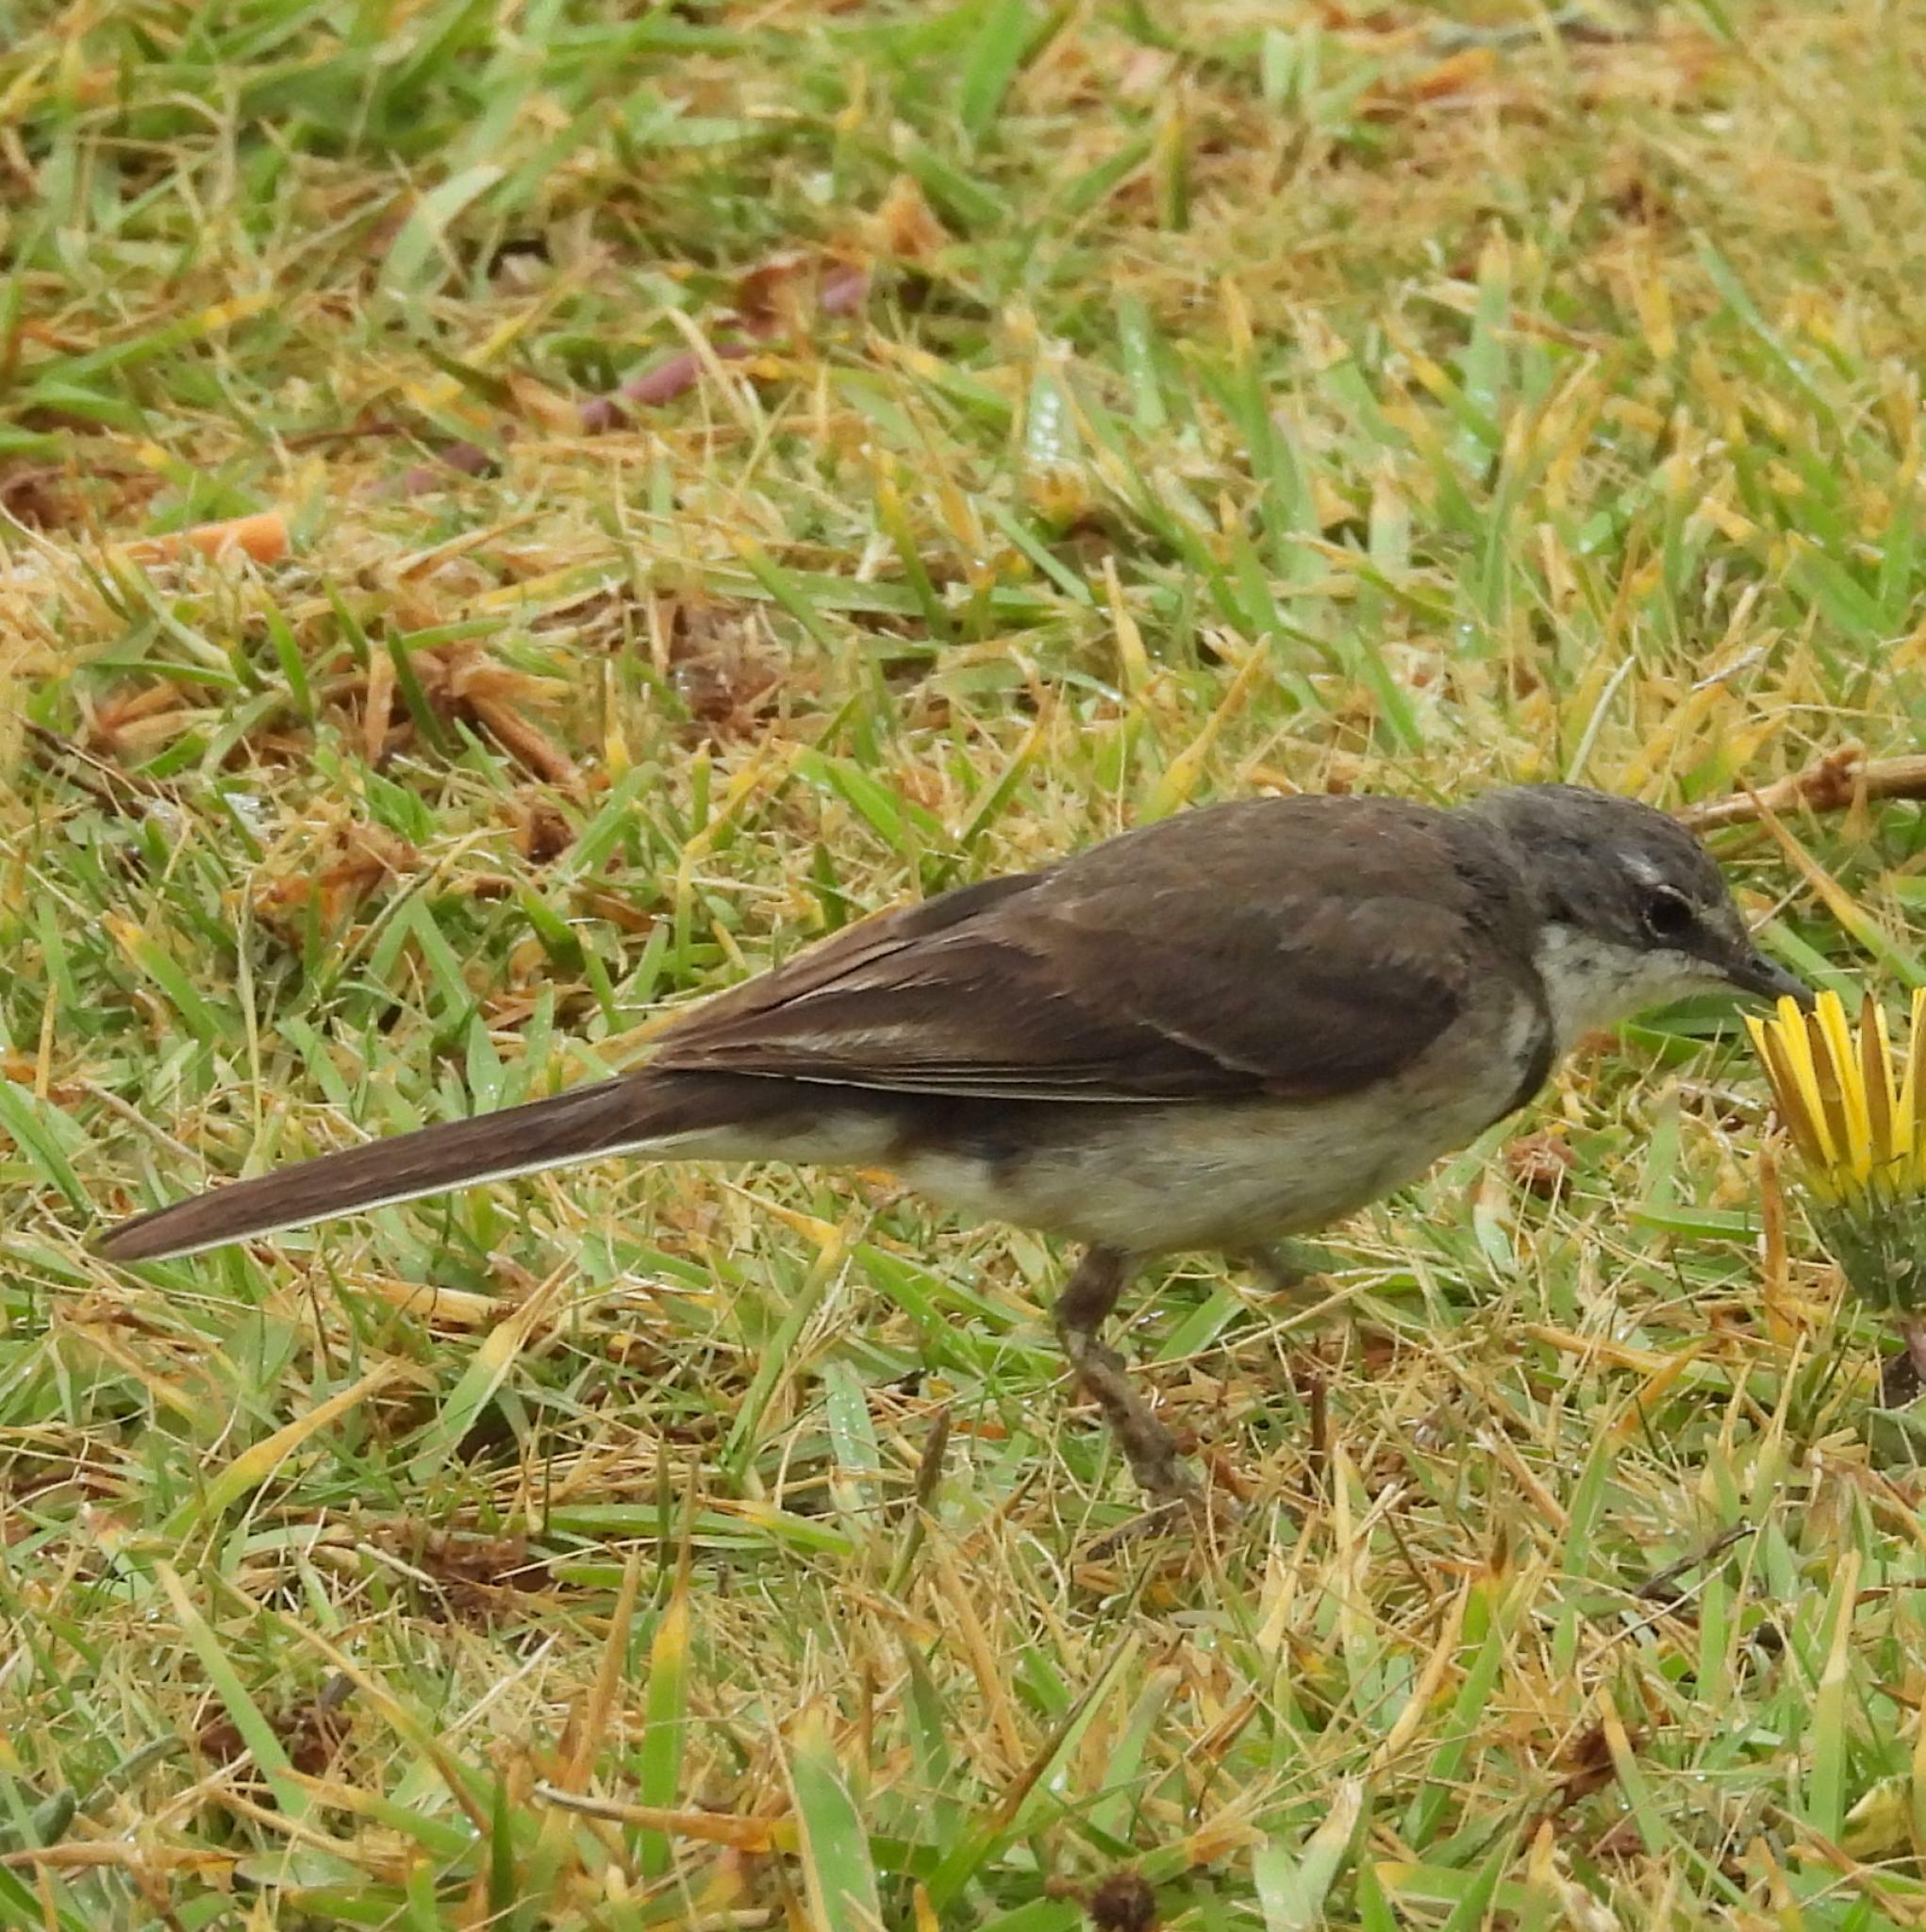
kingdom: Animalia
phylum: Chordata
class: Aves
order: Passeriformes
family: Motacillidae
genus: Motacilla
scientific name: Motacilla capensis
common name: Cape wagtail
